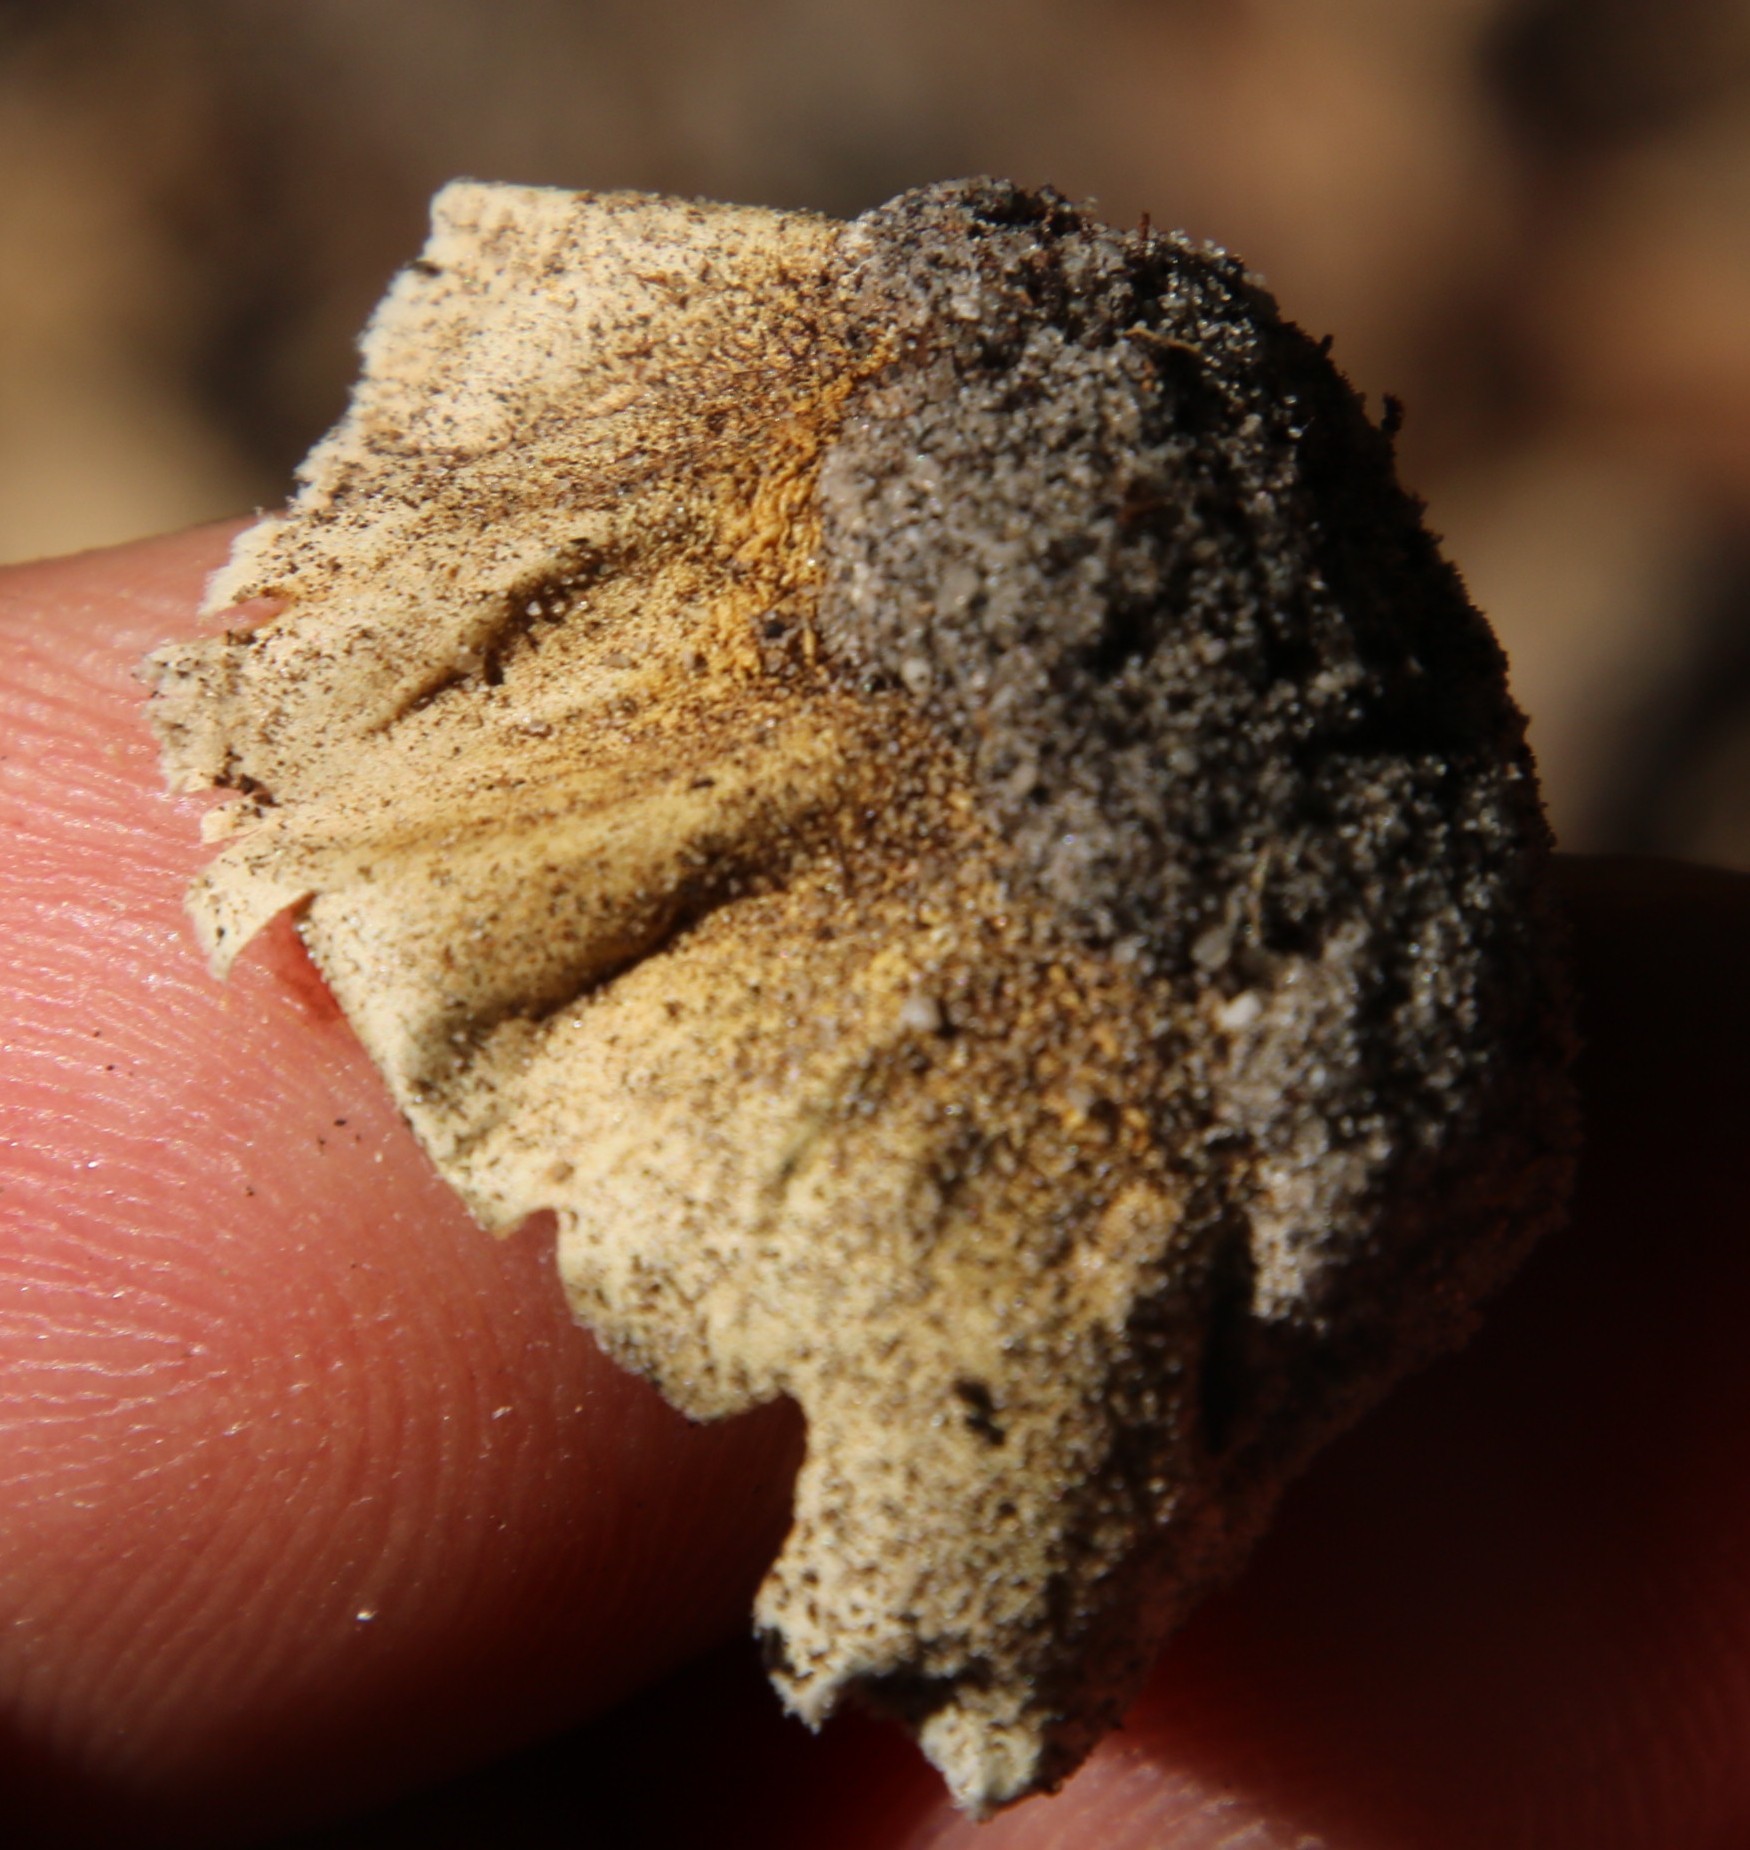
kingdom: Fungi
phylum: Basidiomycota
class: Agaricomycetes
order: Agaricales
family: Agaricaceae
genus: Battarrea
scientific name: Battarrea phalloides
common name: Sandy stiltball
